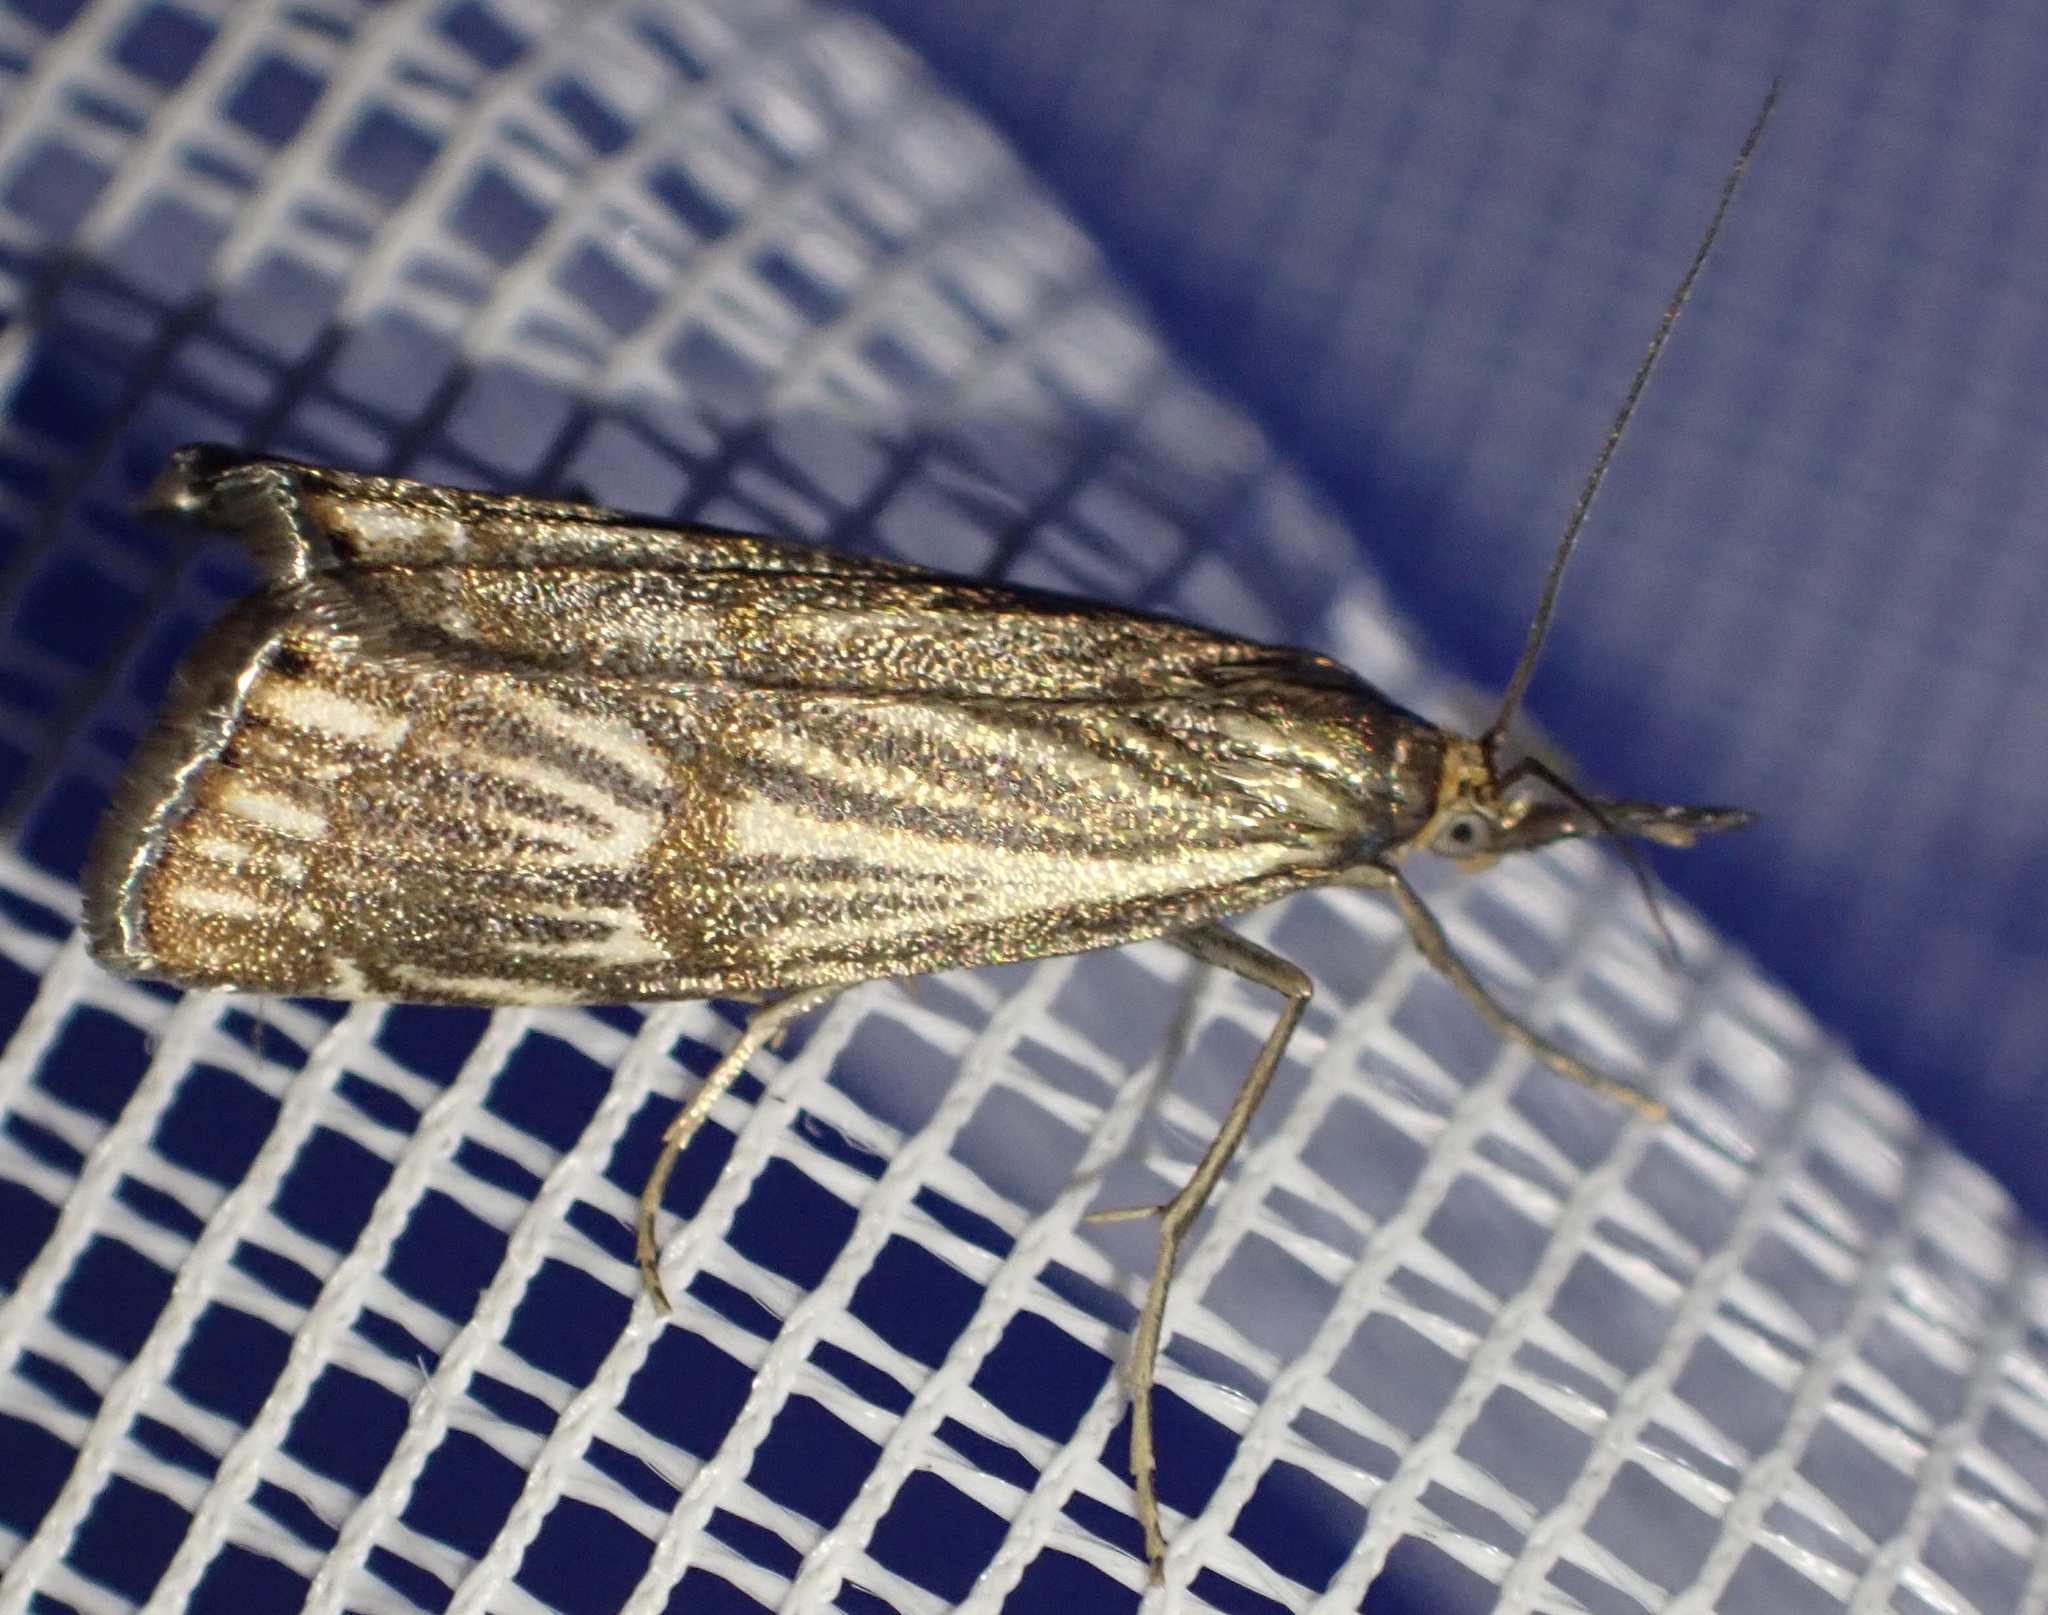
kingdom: Animalia
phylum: Arthropoda
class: Insecta
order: Lepidoptera
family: Crambidae
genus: Chrysocrambus
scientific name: Chrysocrambus linetella
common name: Orange-bar grass-veneer
